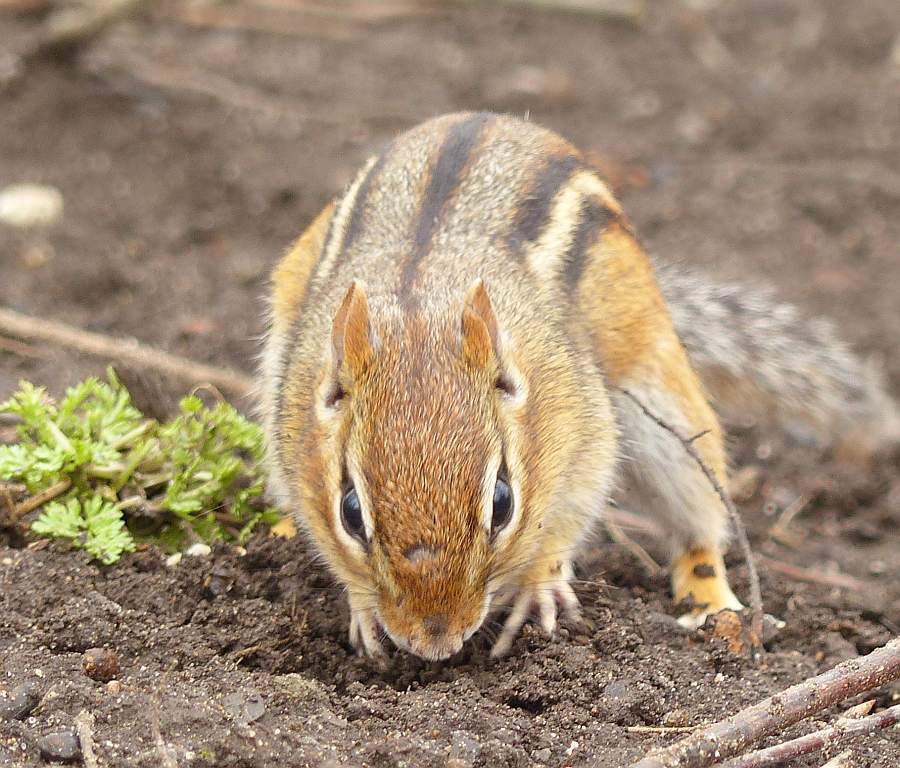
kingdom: Animalia
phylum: Chordata
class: Mammalia
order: Rodentia
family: Sciuridae
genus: Tamias
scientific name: Tamias striatus
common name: Eastern chipmunk
